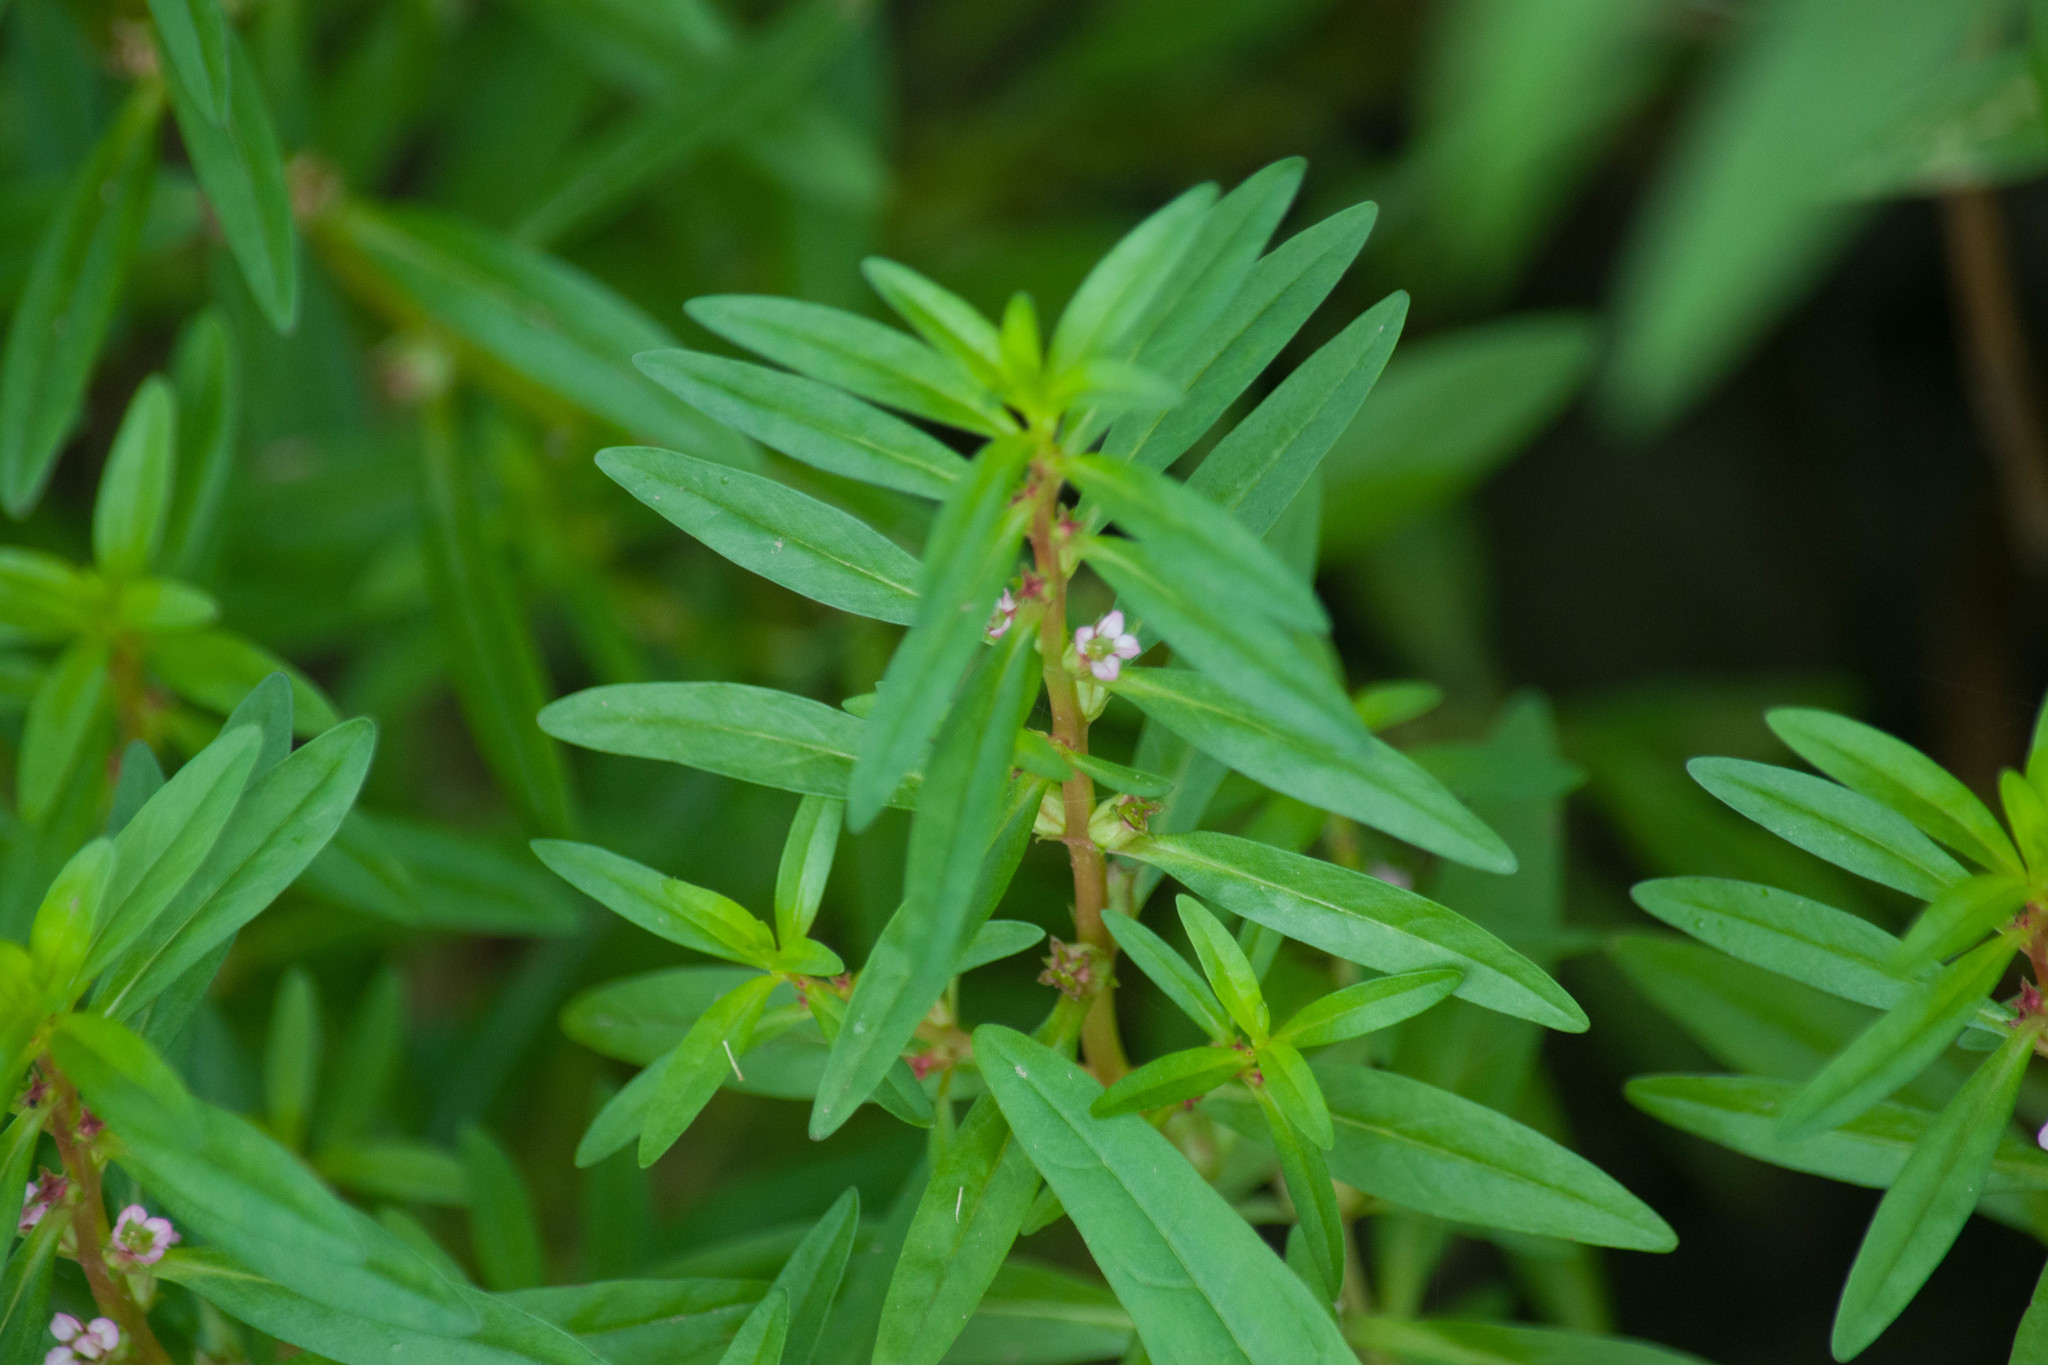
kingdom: Plantae
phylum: Tracheophyta
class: Magnoliopsida
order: Myrtales
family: Lythraceae
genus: Rotala
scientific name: Rotala ramosior
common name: Lowland rotala
